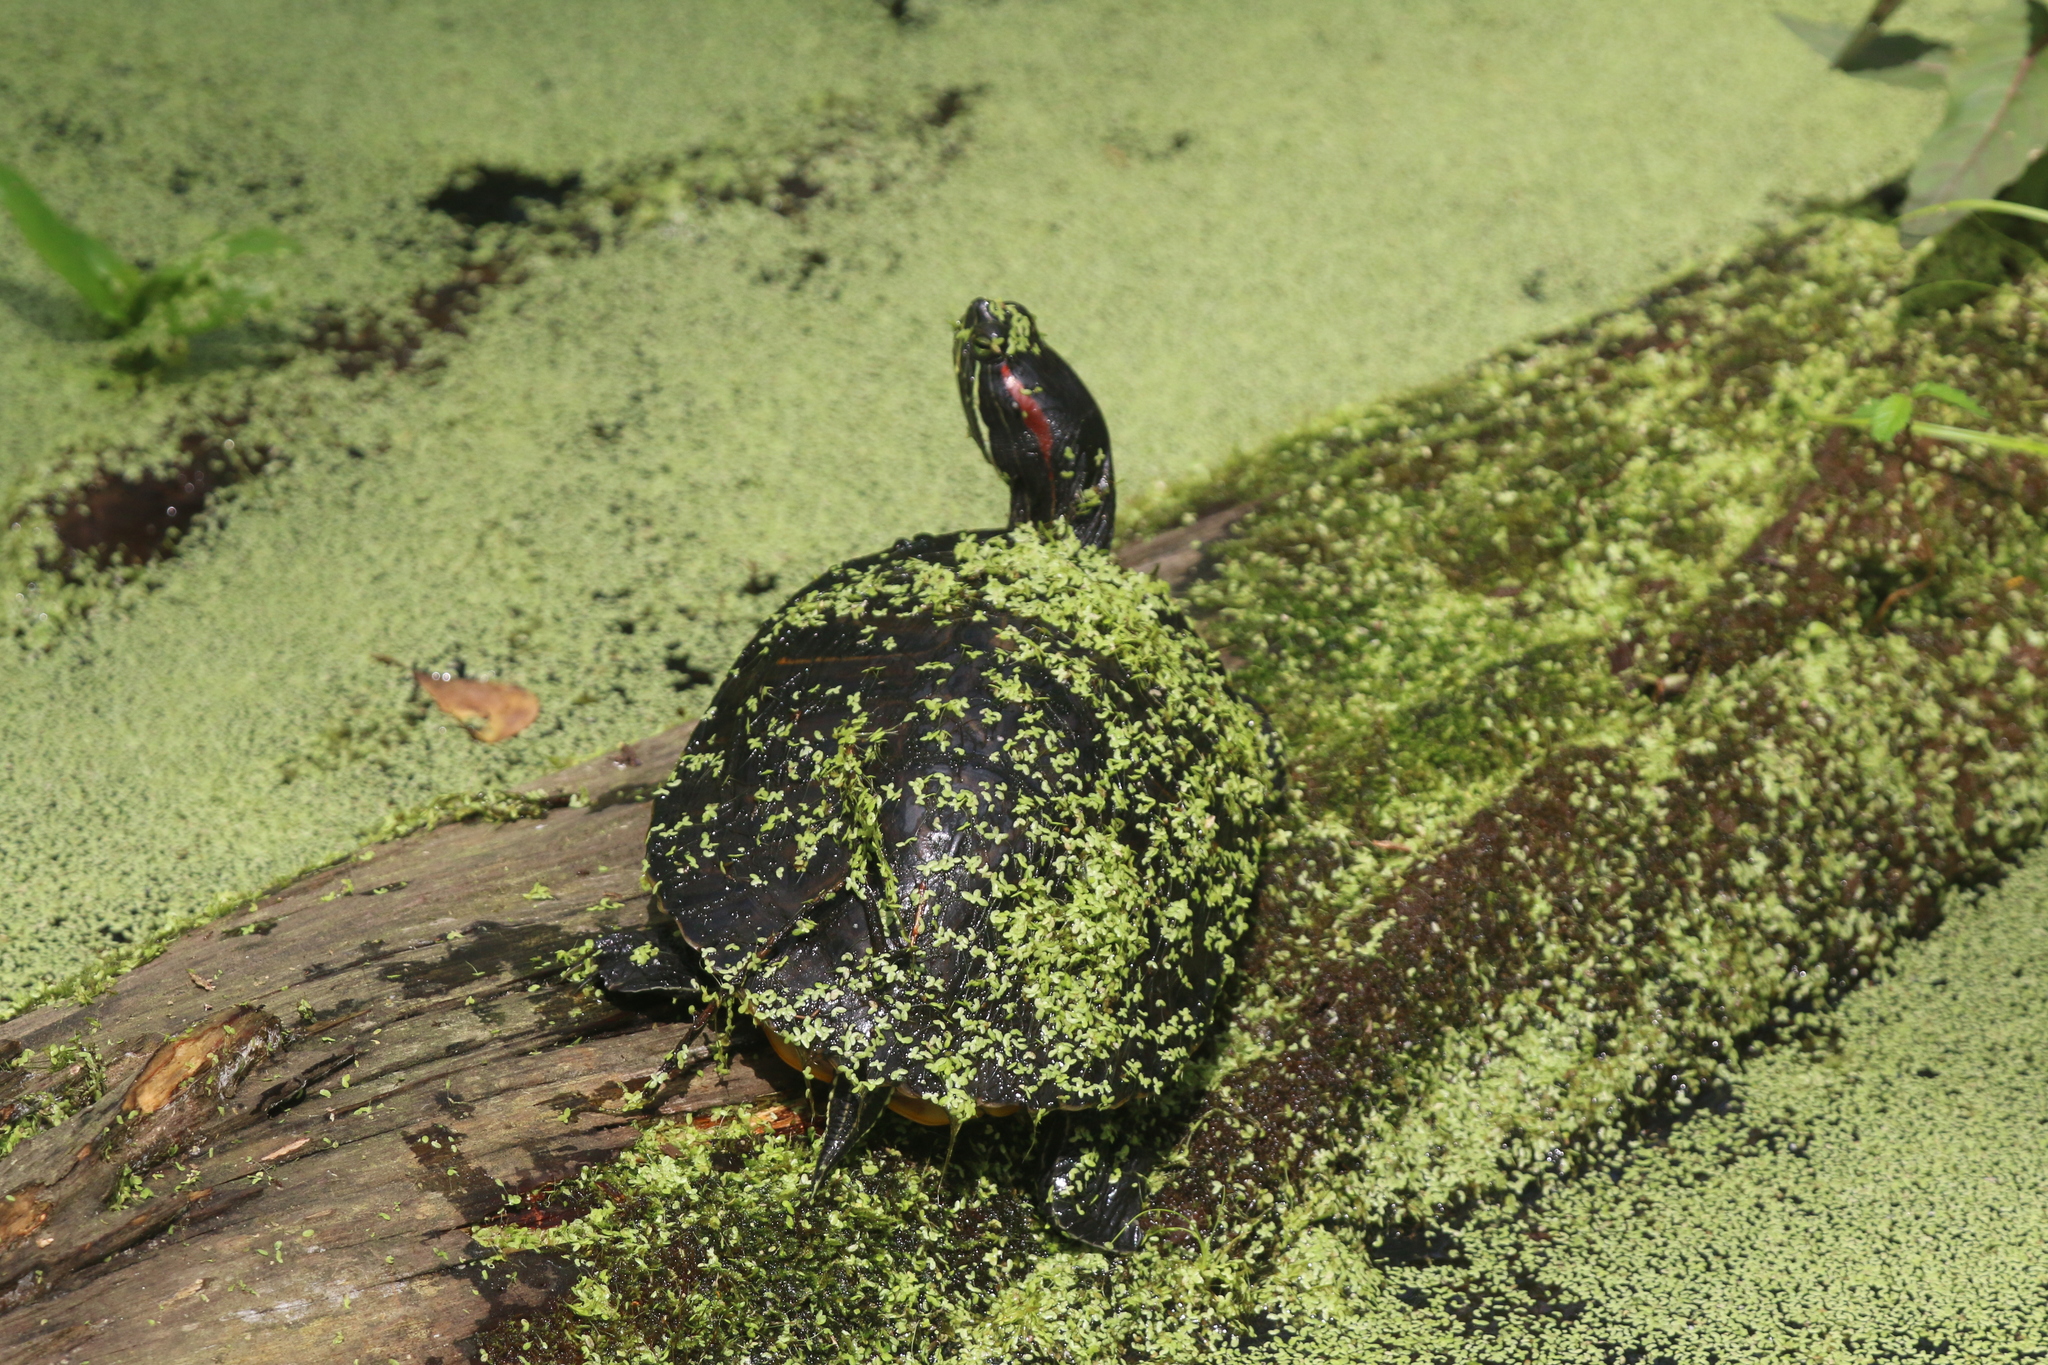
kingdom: Animalia
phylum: Chordata
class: Testudines
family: Emydidae
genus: Trachemys
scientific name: Trachemys scripta
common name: Slider
